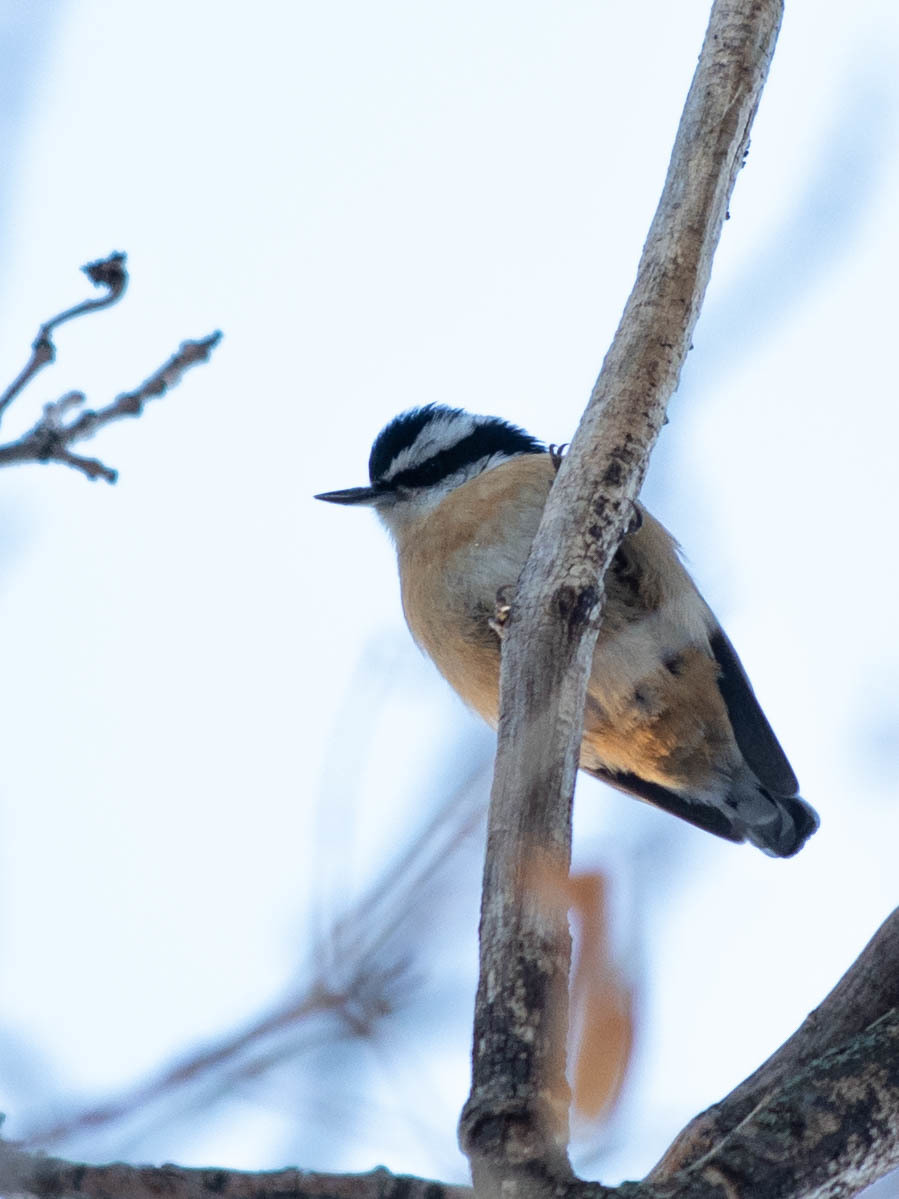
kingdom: Animalia
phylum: Chordata
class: Aves
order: Passeriformes
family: Sittidae
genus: Sitta
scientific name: Sitta canadensis
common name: Red-breasted nuthatch
